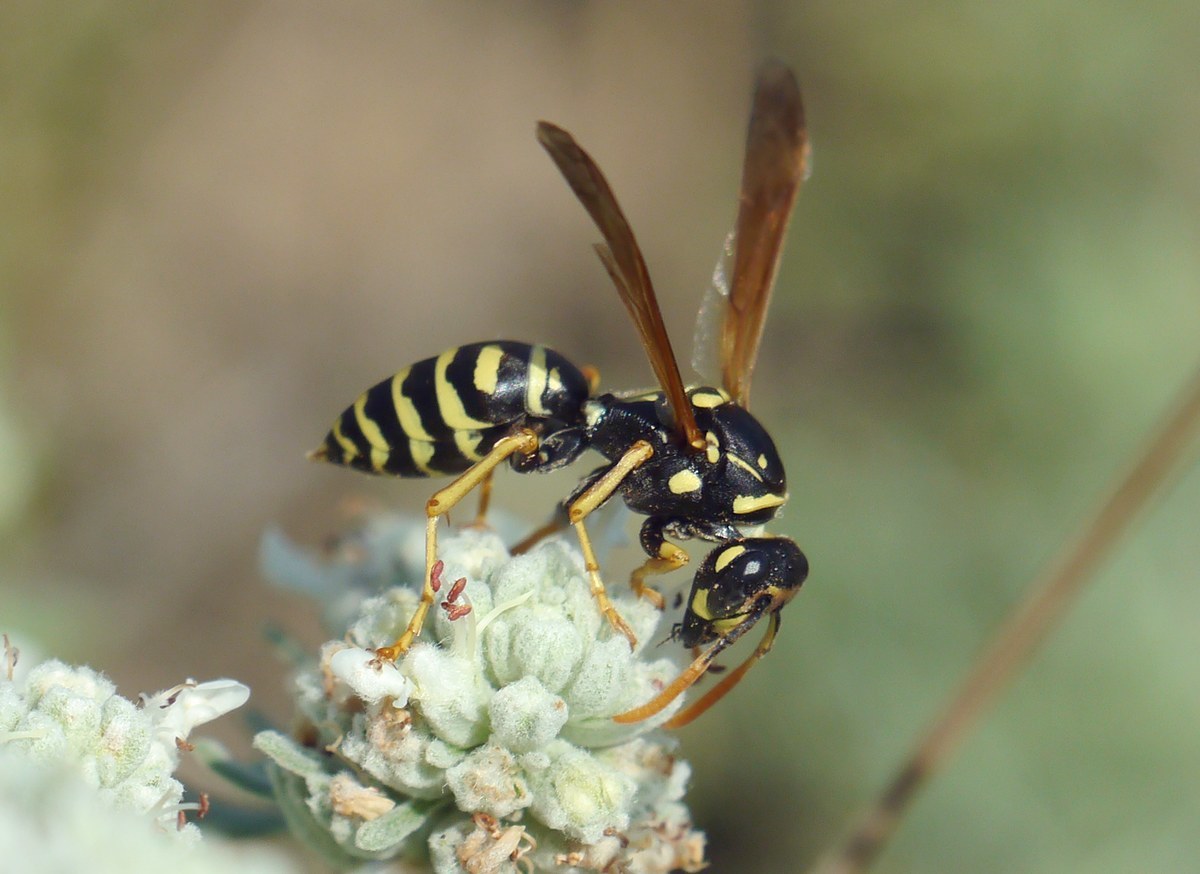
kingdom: Animalia
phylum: Arthropoda
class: Insecta
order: Hymenoptera
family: Eumenidae
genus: Polistes
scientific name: Polistes dominula
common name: Paper wasp
